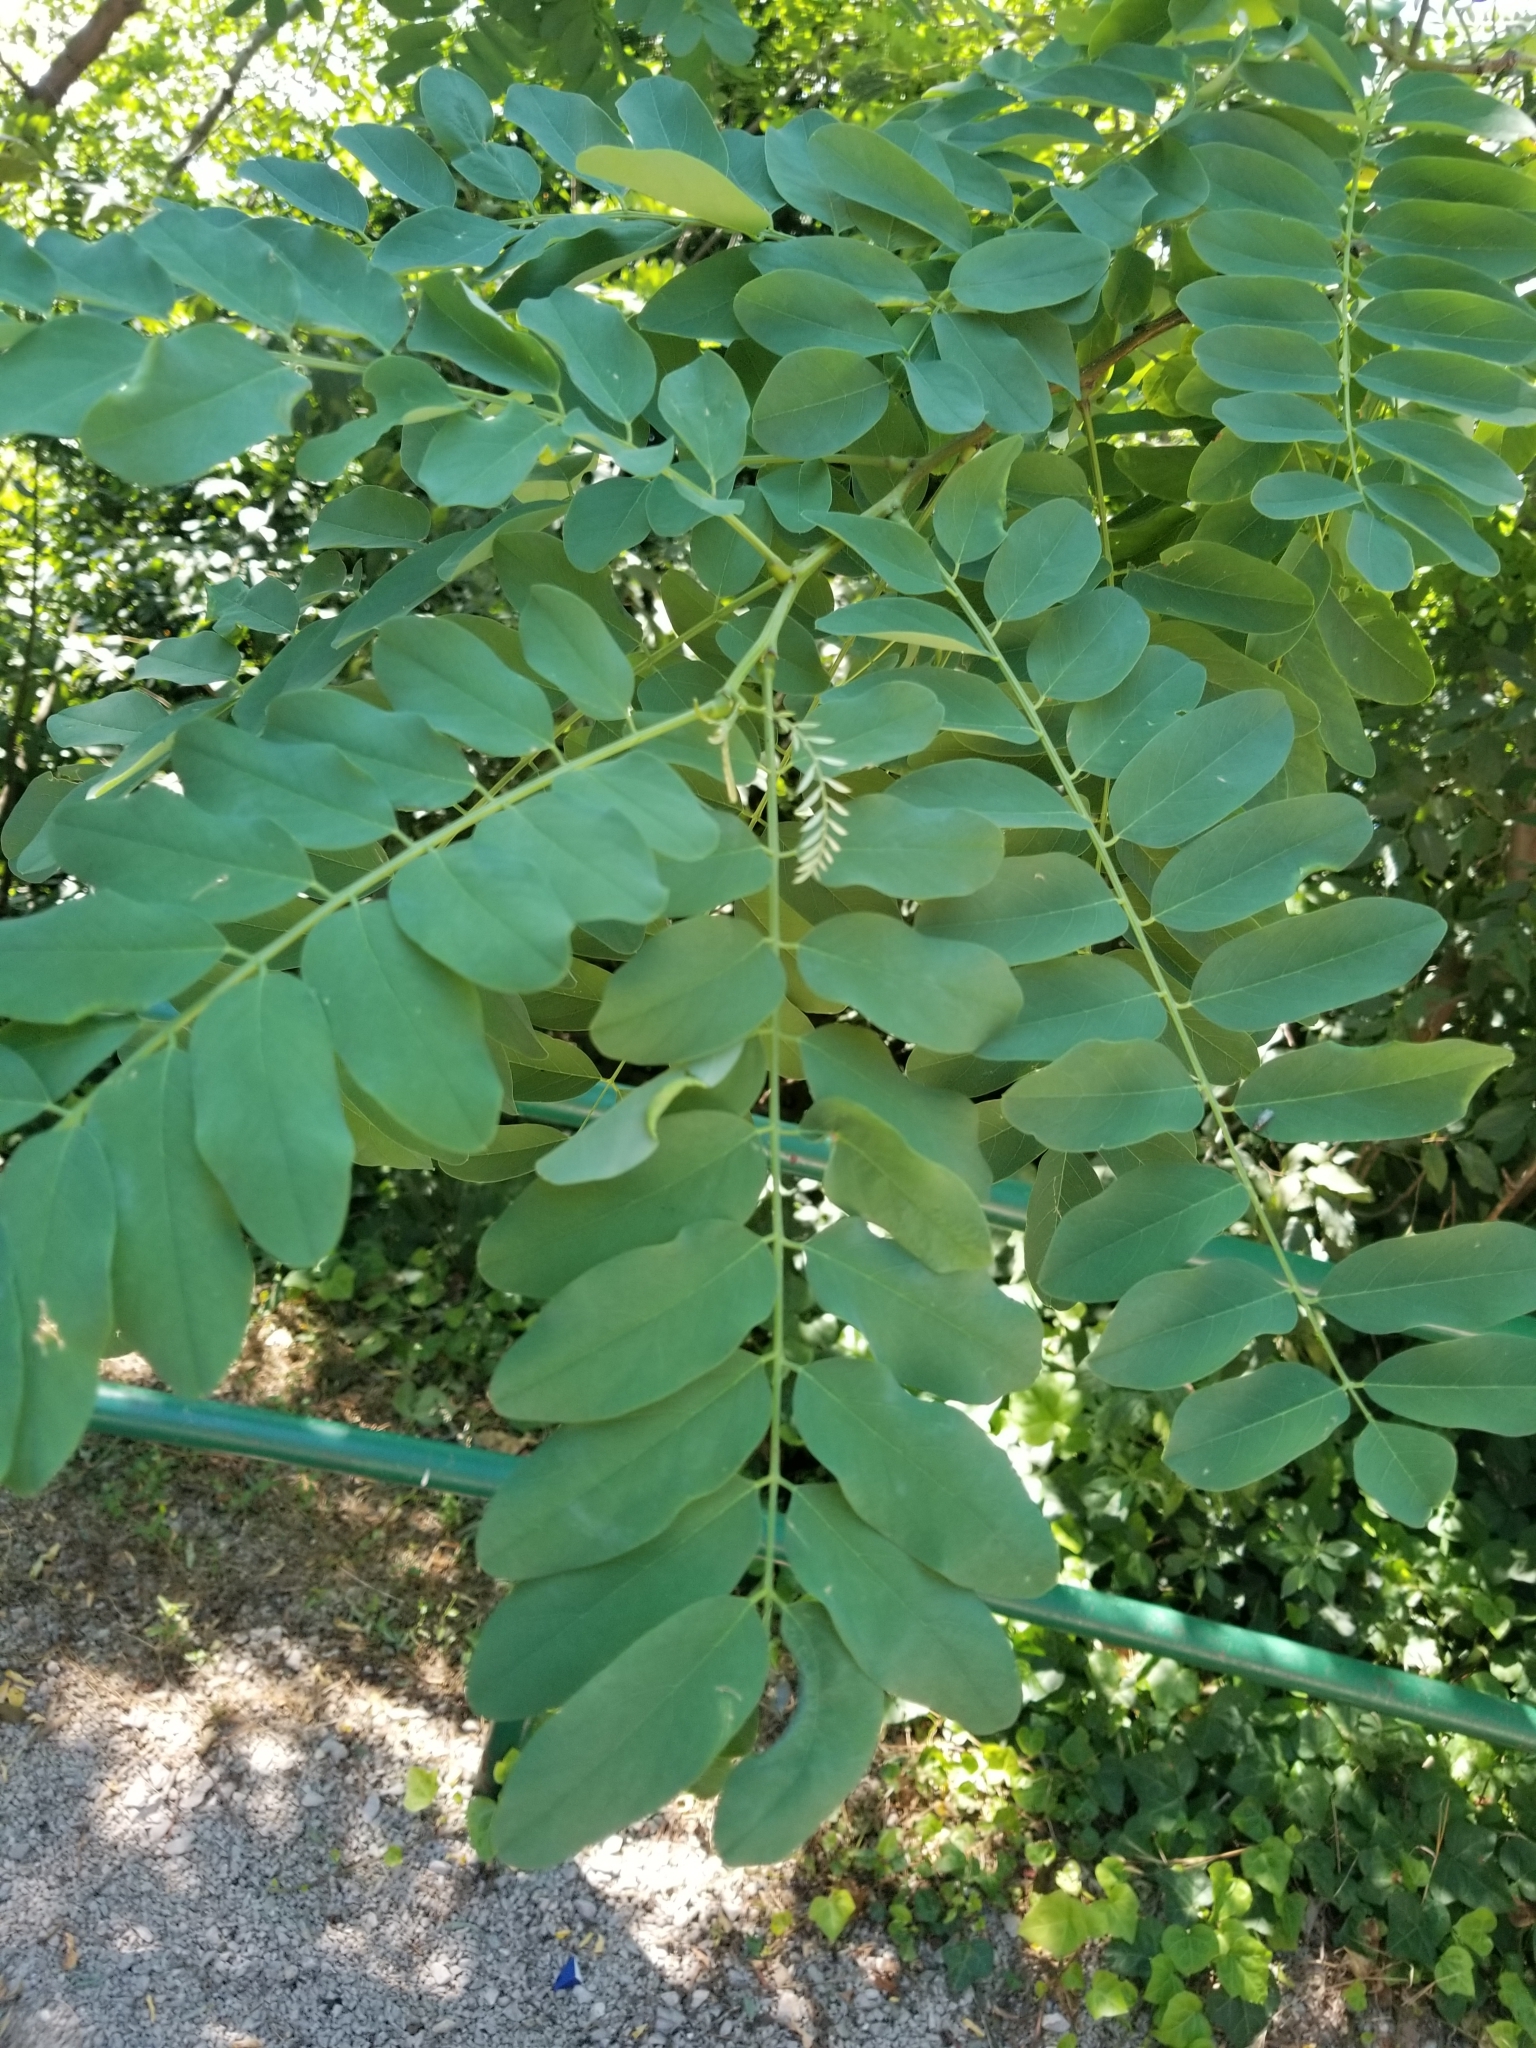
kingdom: Plantae
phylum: Tracheophyta
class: Magnoliopsida
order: Fabales
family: Fabaceae
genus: Robinia
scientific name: Robinia pseudoacacia
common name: Black locust
